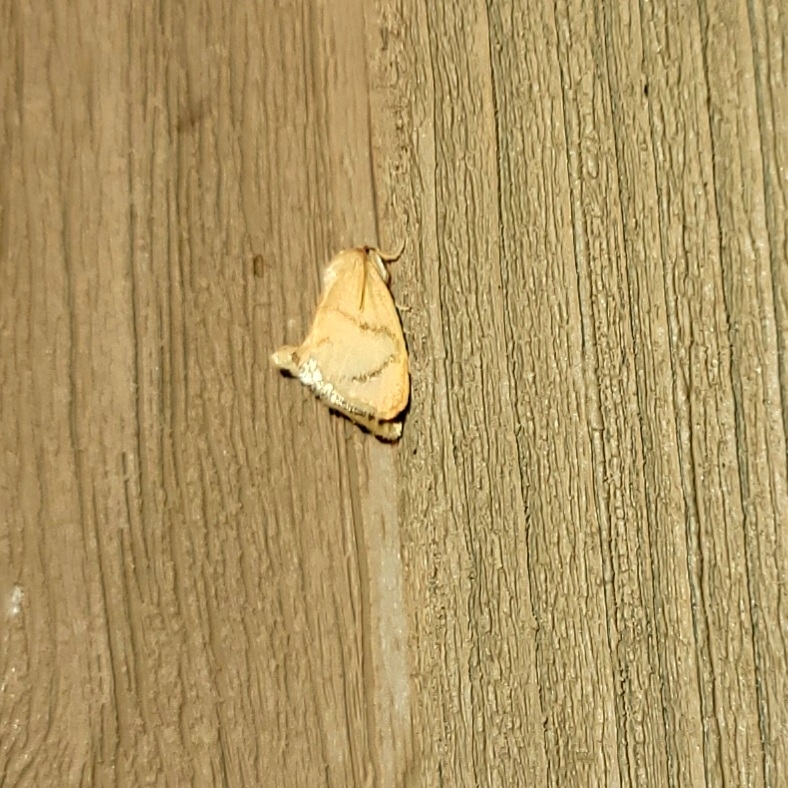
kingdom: Animalia
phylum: Arthropoda
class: Insecta
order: Lepidoptera
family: Limacodidae
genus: Tortricidia
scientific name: Tortricidia flexuosa
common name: Abbreviated button slug moth
